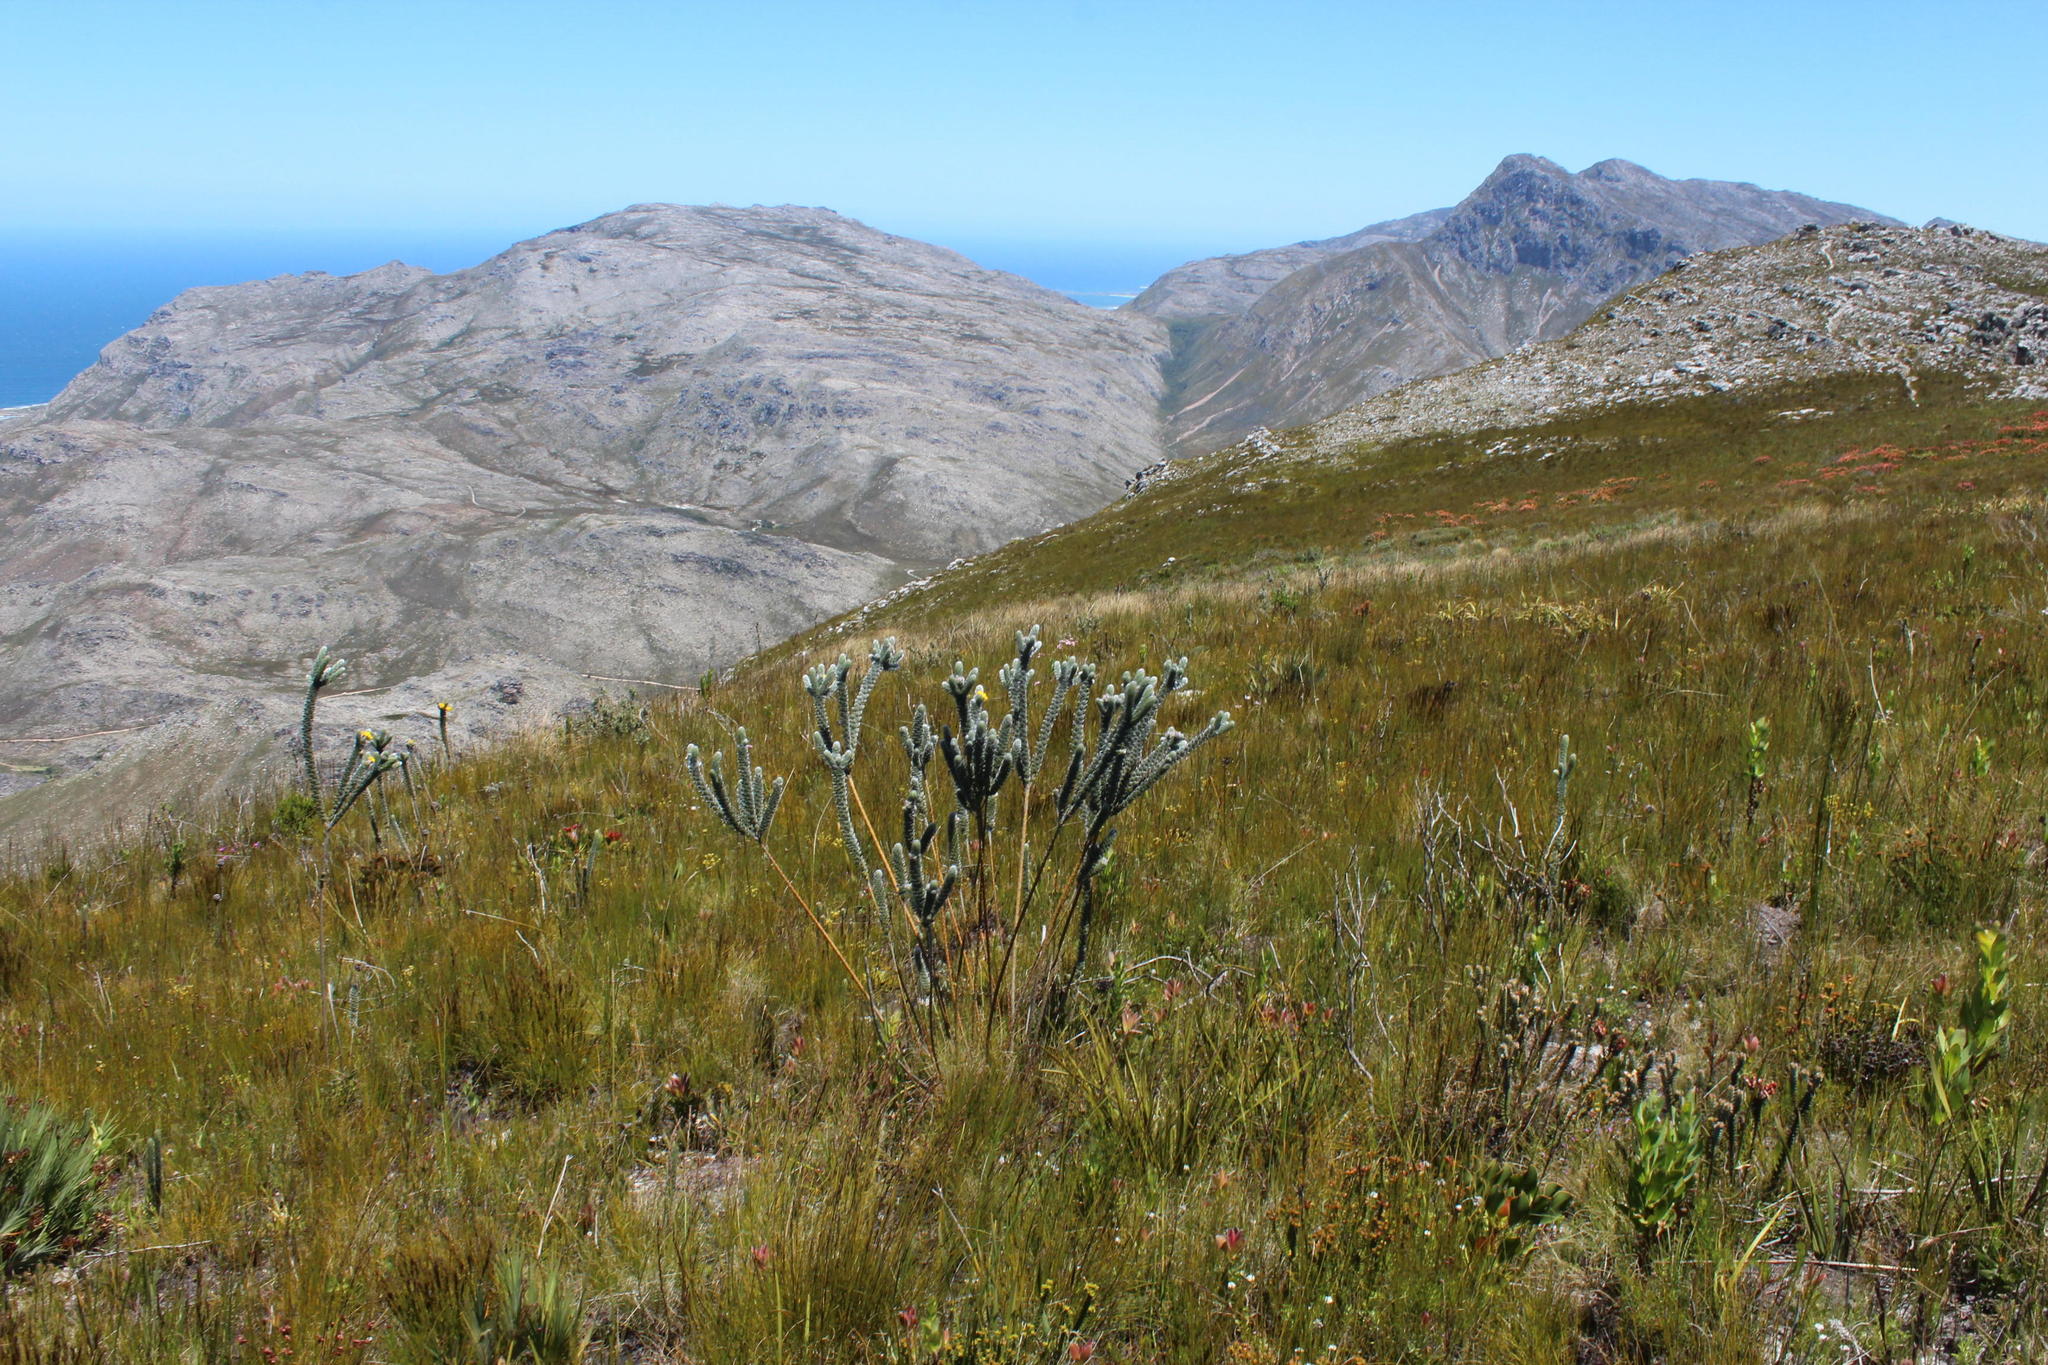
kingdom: Plantae
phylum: Tracheophyta
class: Magnoliopsida
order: Fabales
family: Fabaceae
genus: Liparia
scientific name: Liparia vestita
